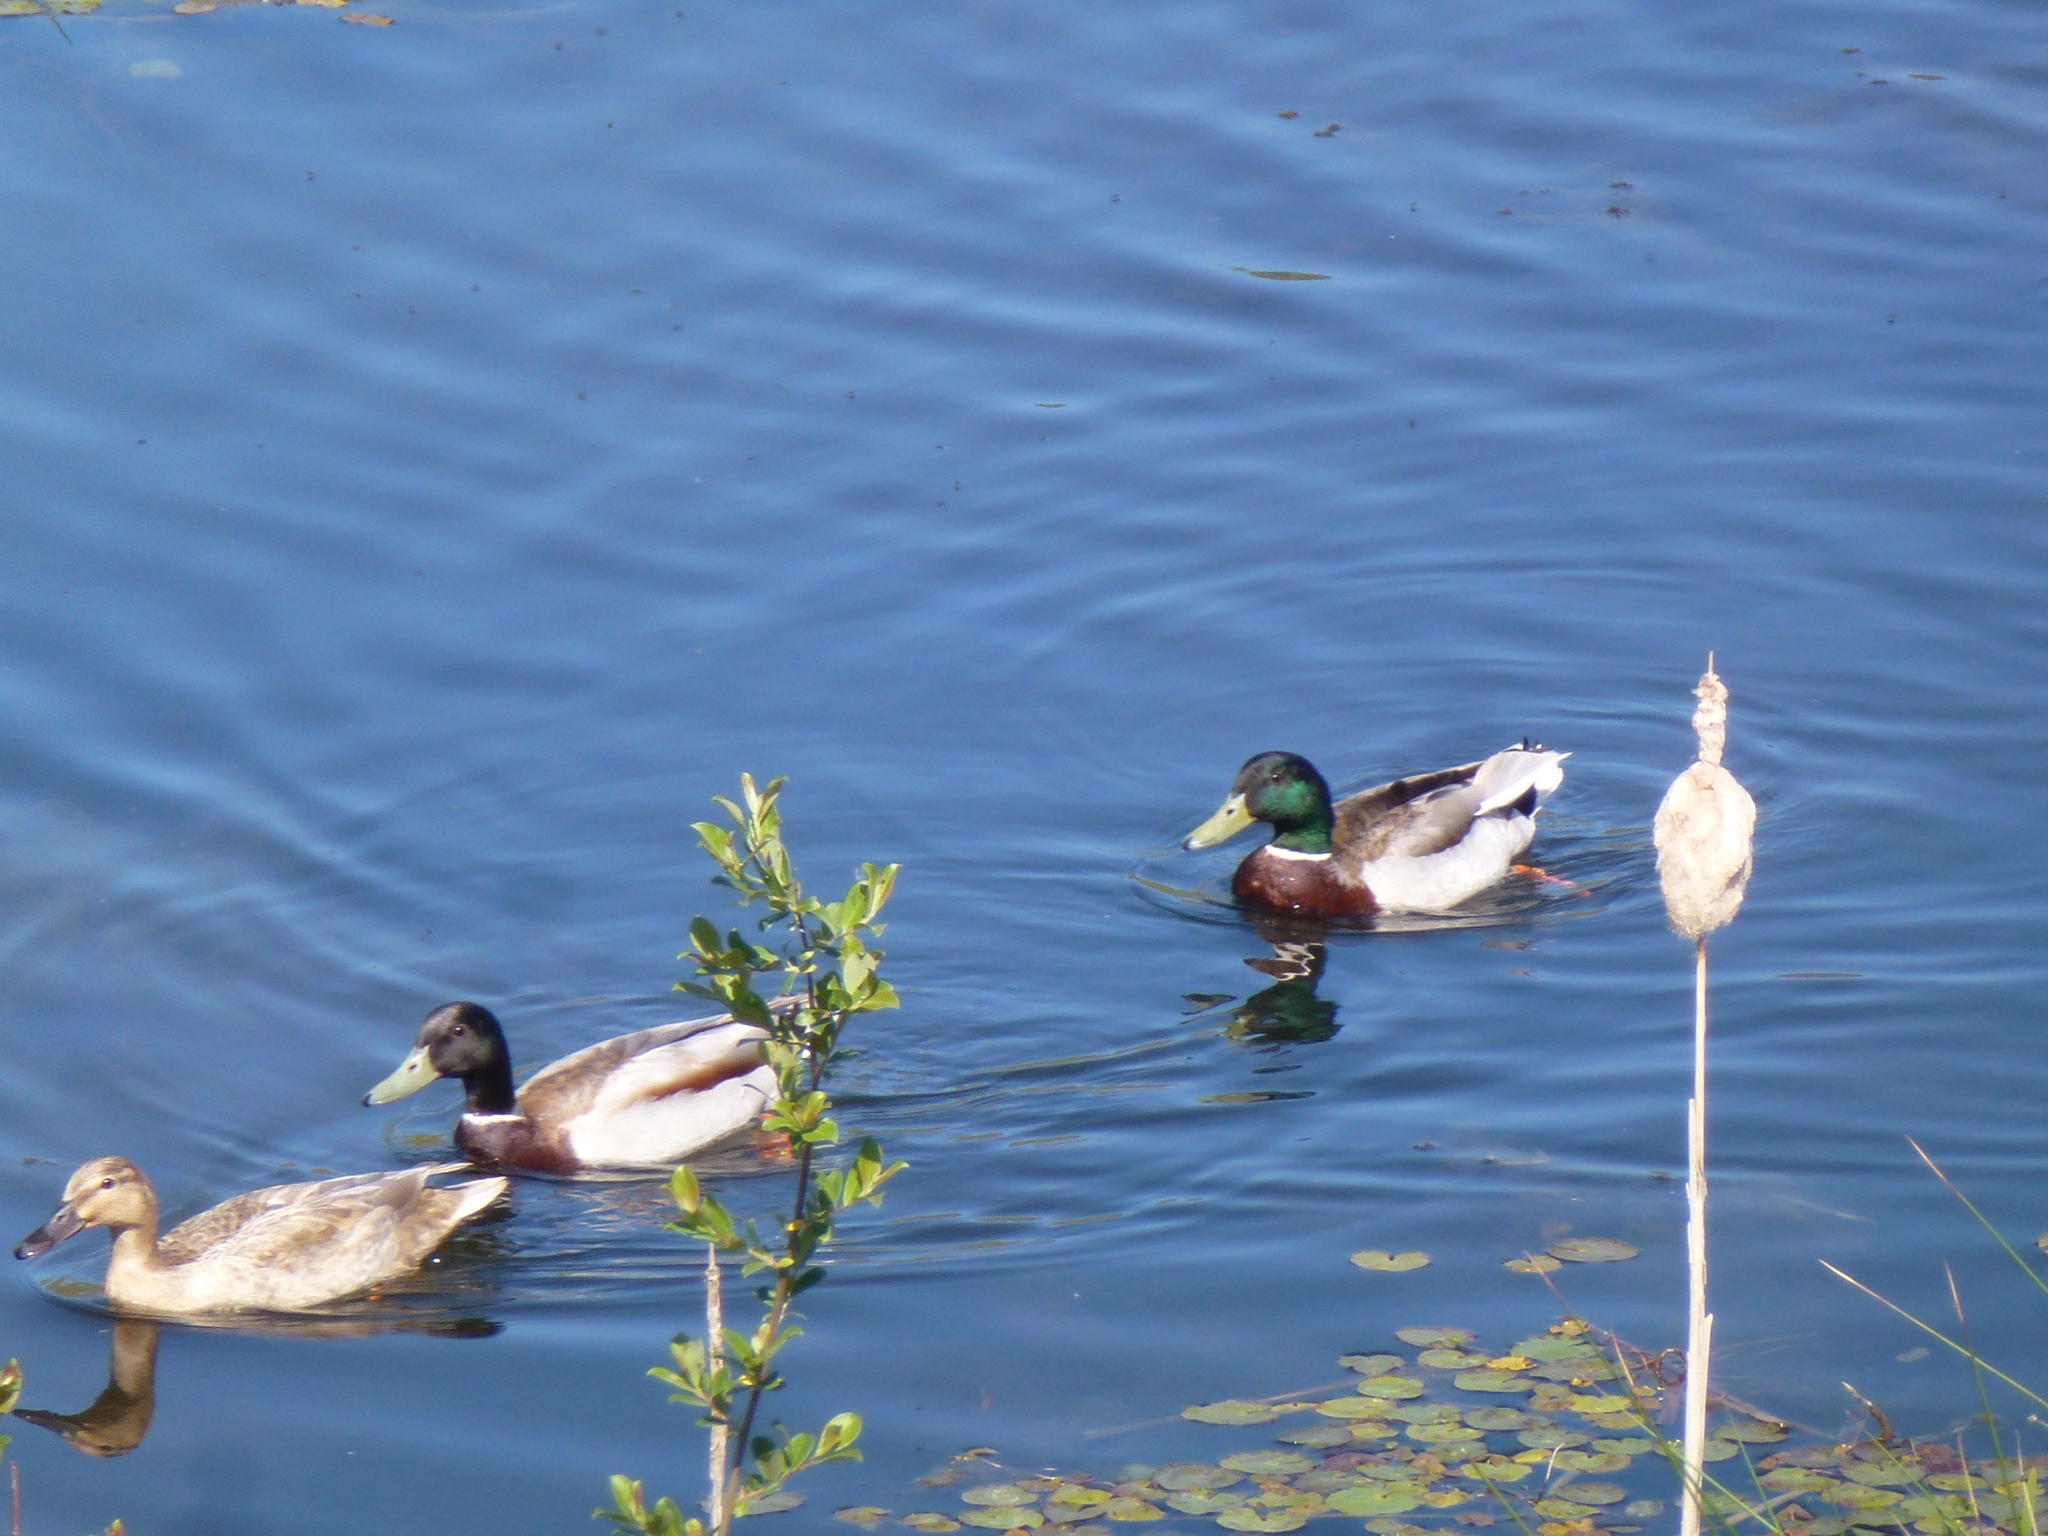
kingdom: Animalia
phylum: Chordata
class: Aves
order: Anseriformes
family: Anatidae
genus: Anas
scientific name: Anas platyrhynchos
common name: Mallard
